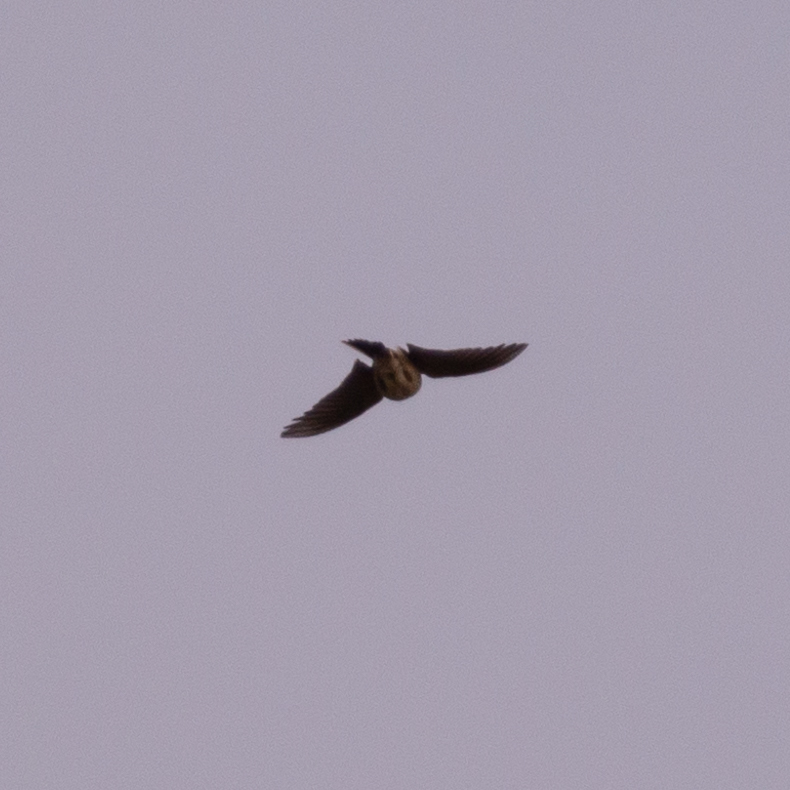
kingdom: Animalia
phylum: Chordata
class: Aves
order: Passeriformes
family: Alaudidae
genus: Alauda
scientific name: Alauda arvensis
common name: Eurasian skylark
